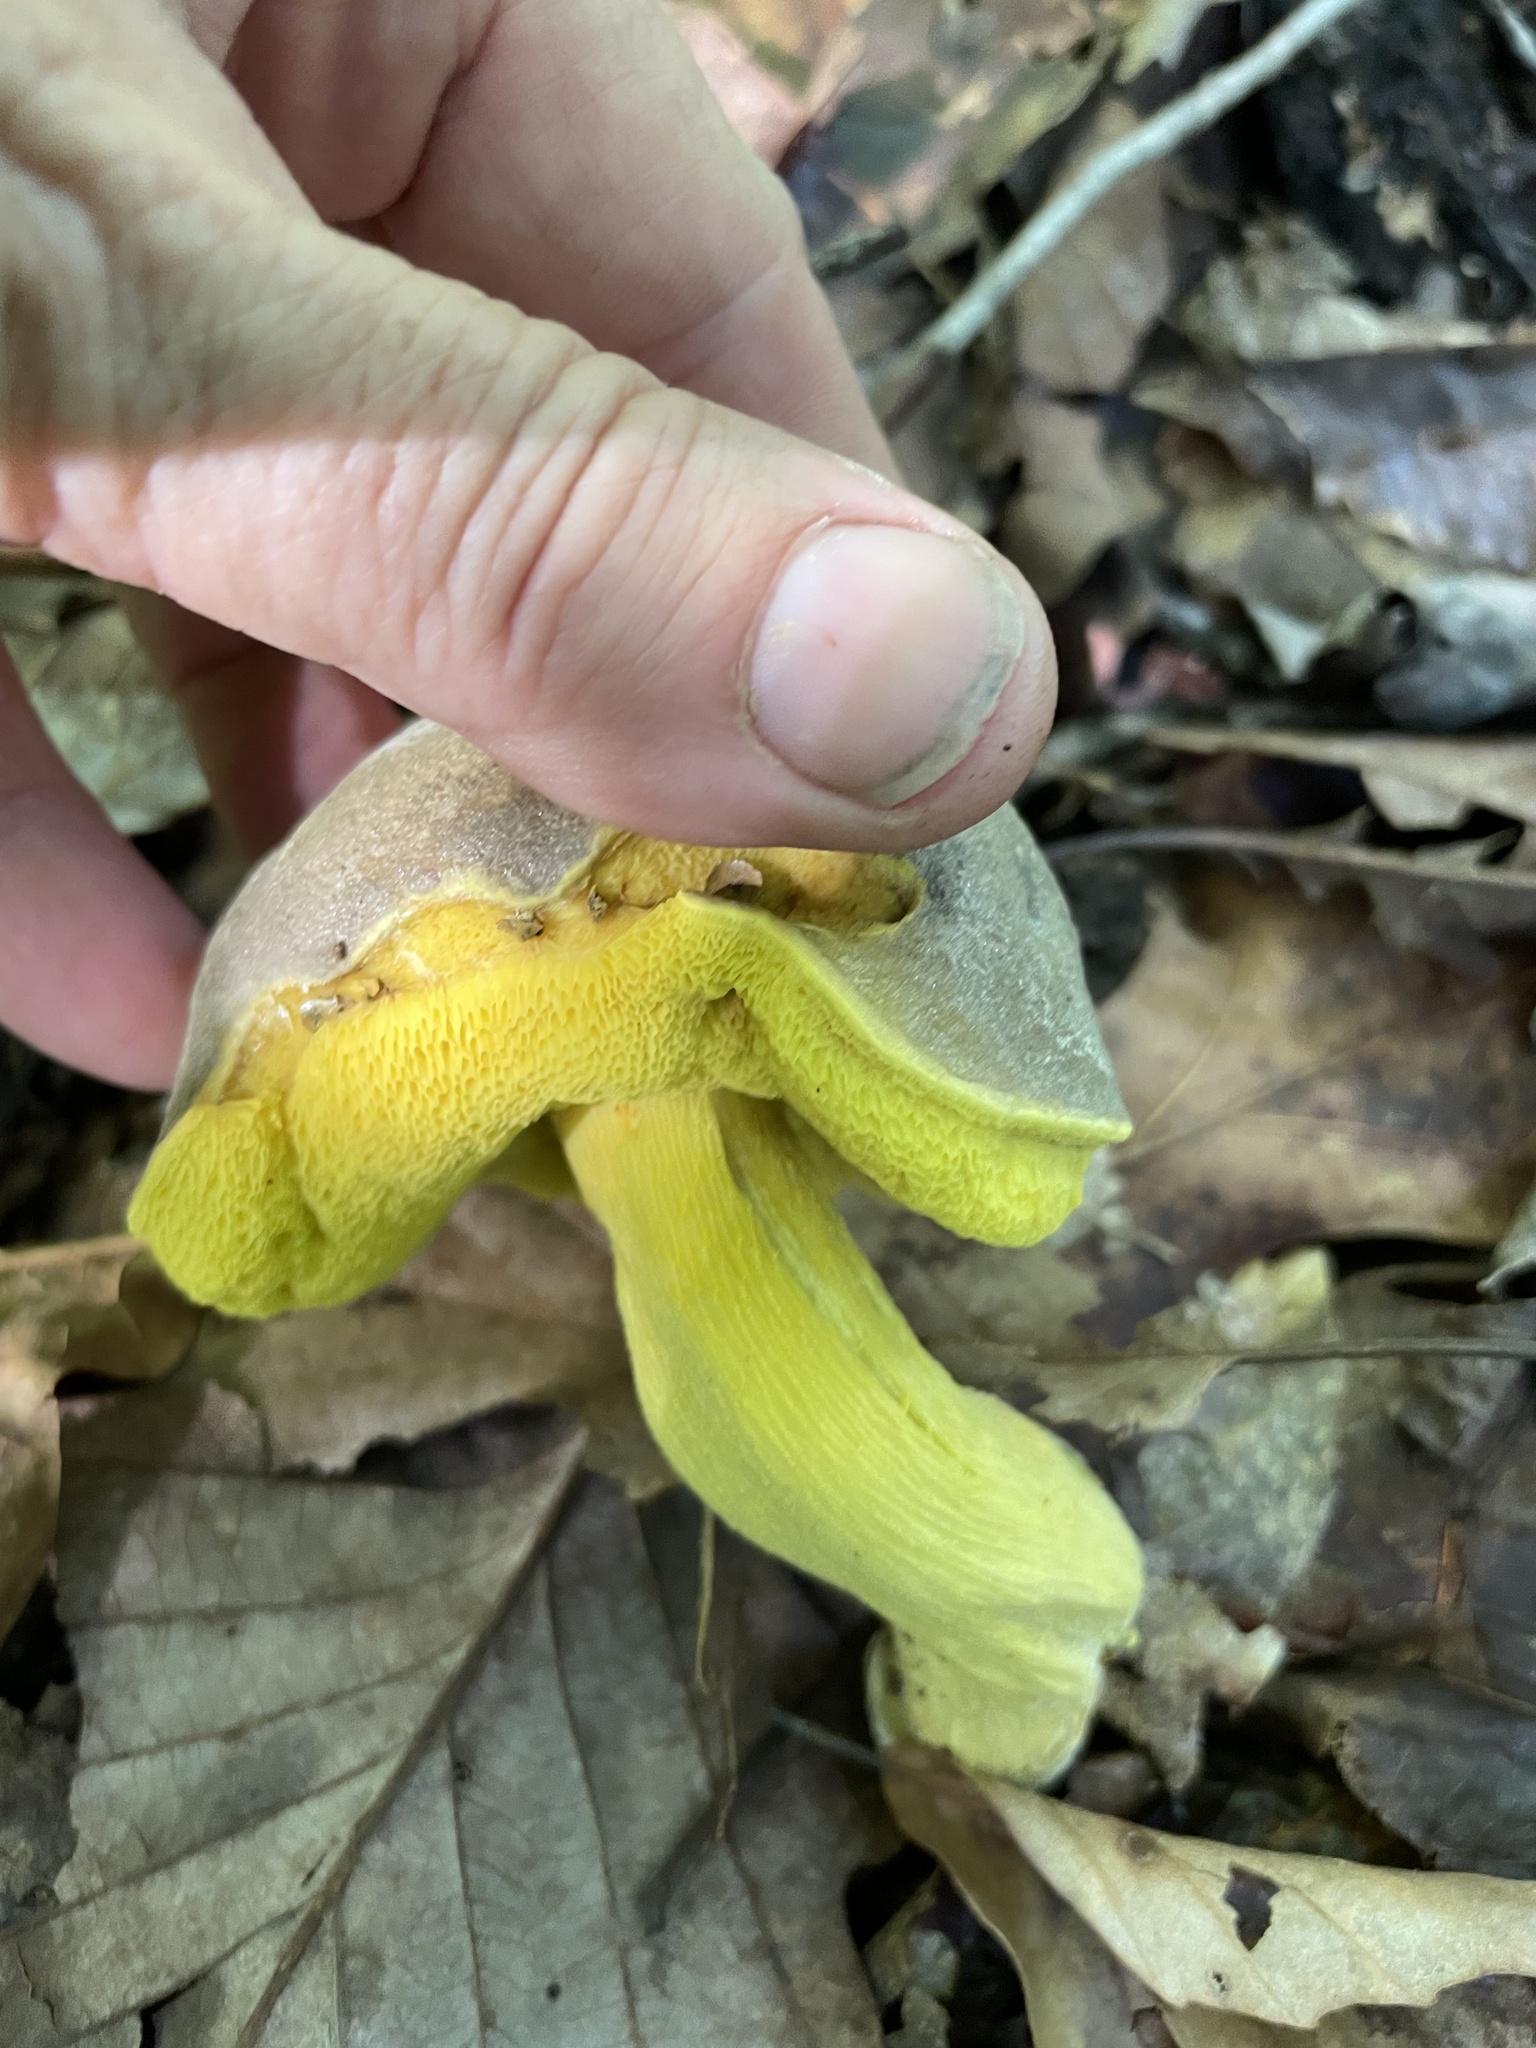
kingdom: Fungi
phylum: Basidiomycota
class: Agaricomycetes
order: Boletales
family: Boletaceae
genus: Retiboletus
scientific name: Retiboletus ornatipes
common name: Ornate-stalked bolete
